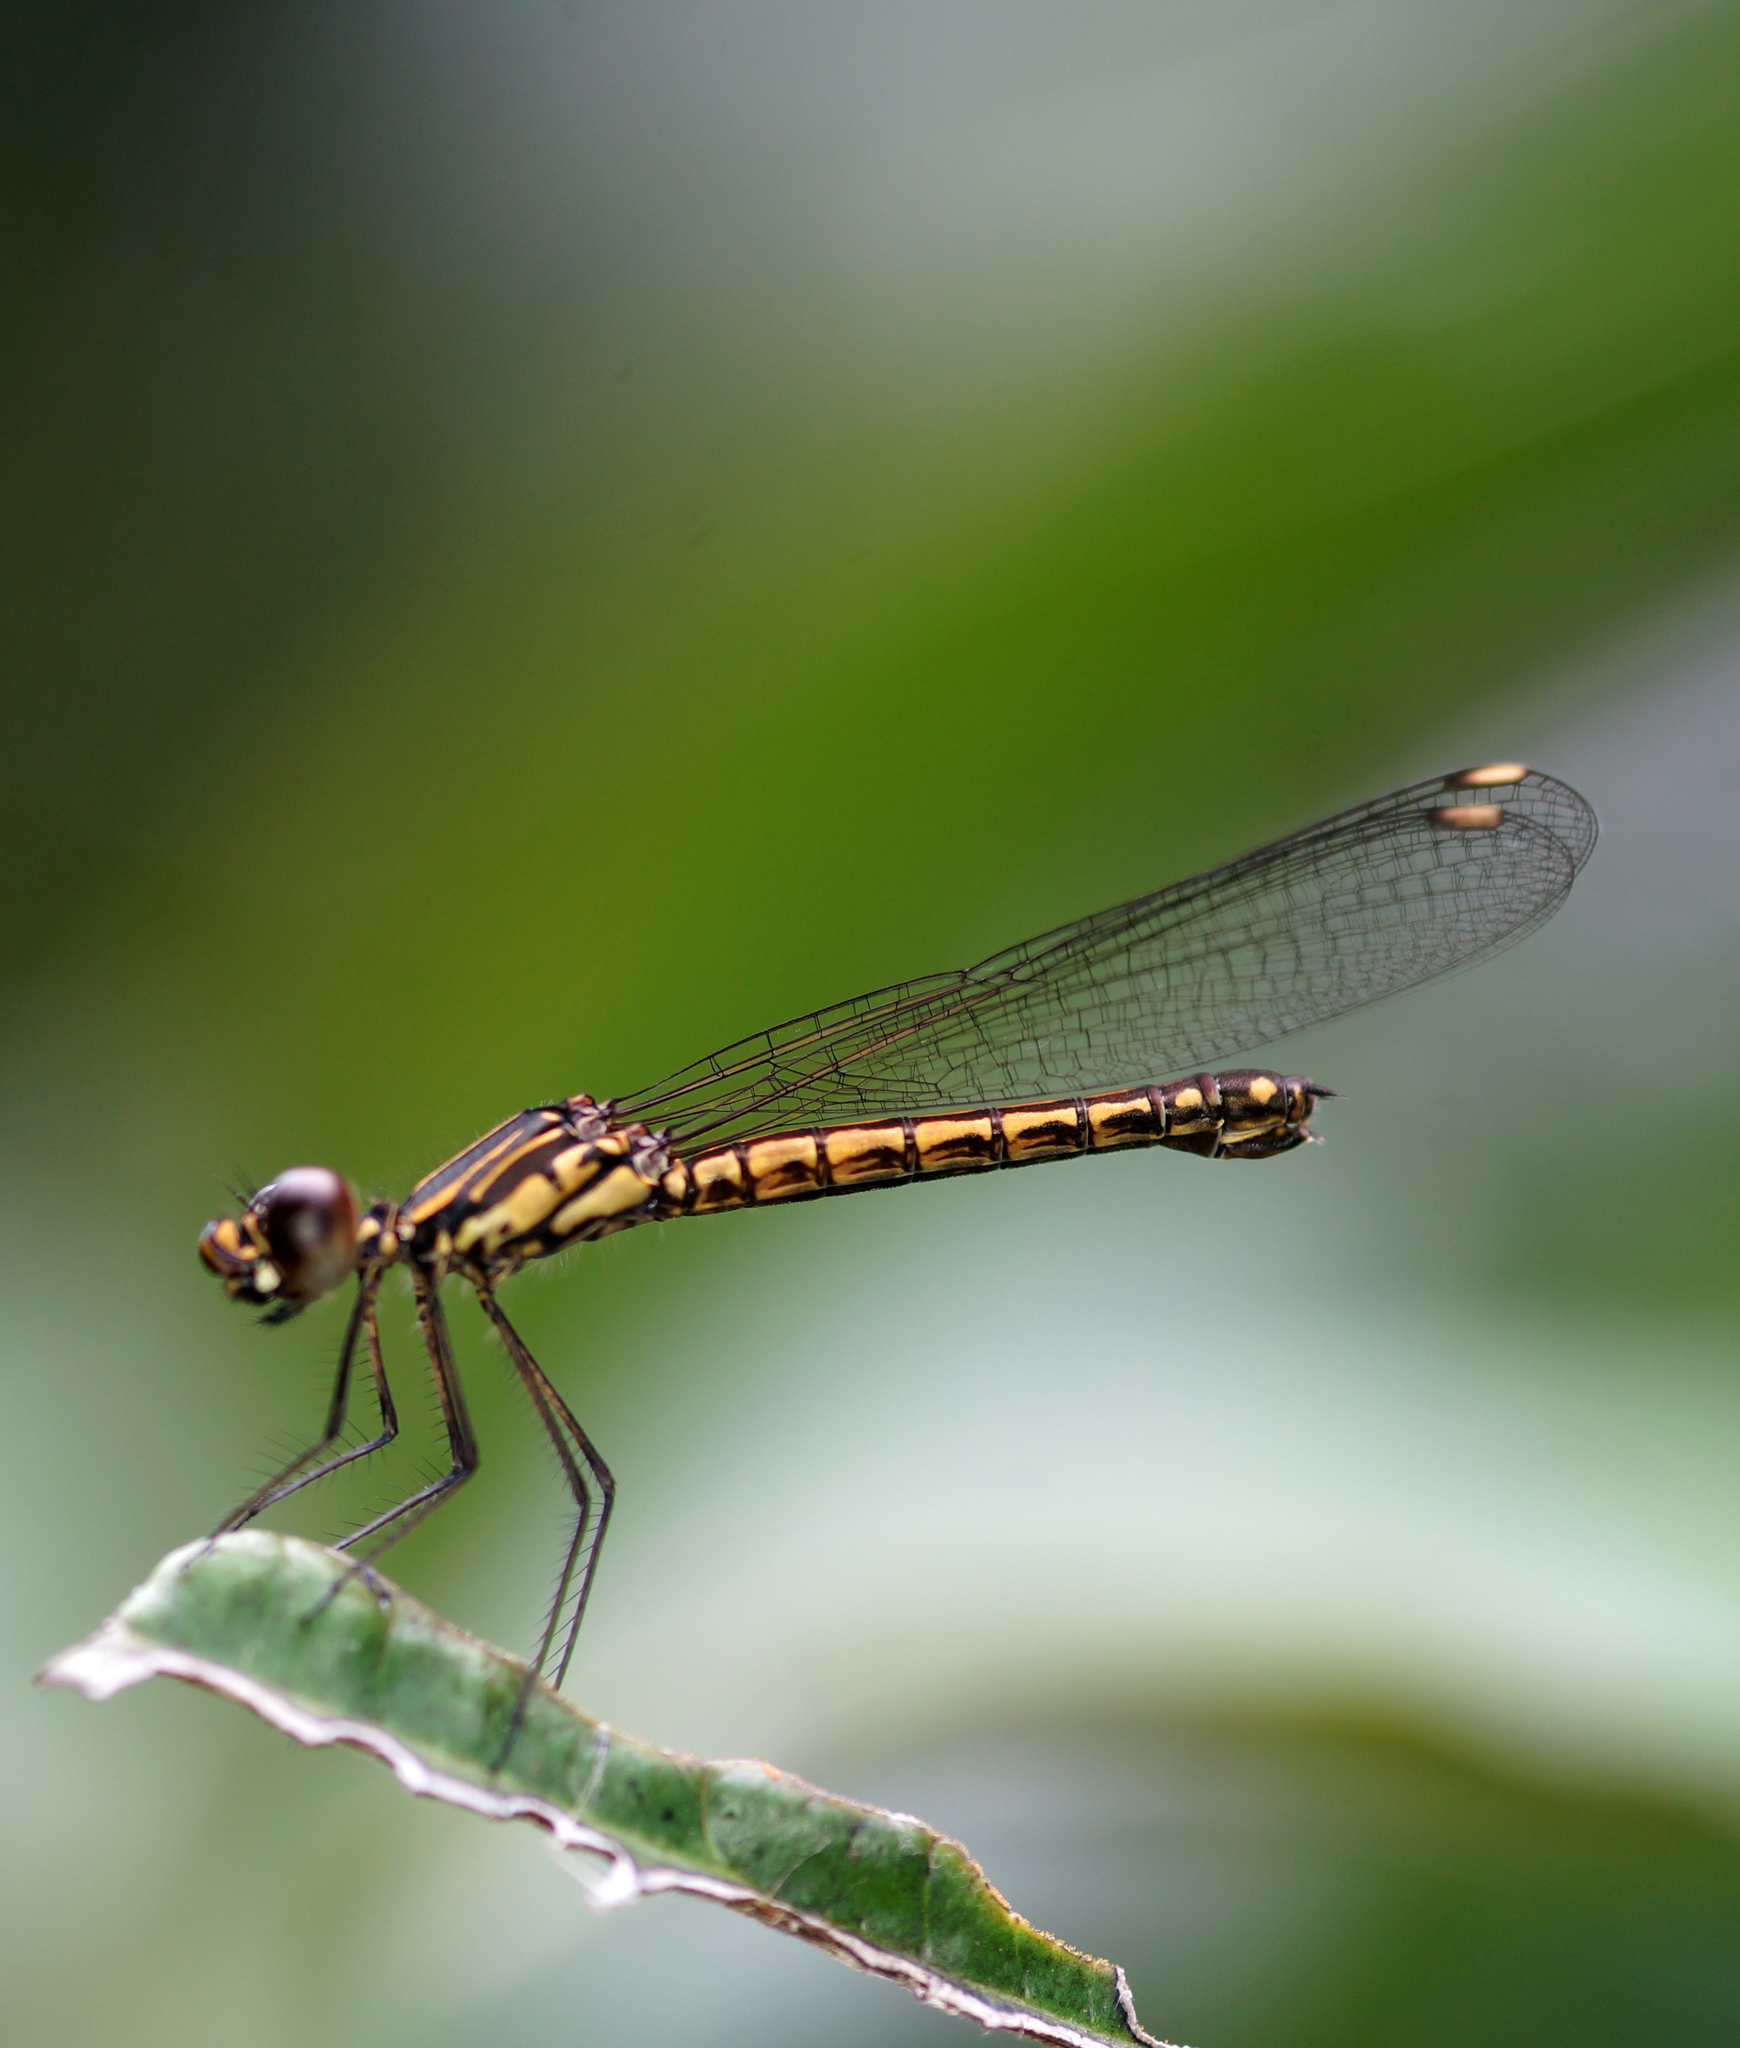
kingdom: Animalia
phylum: Arthropoda
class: Insecta
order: Odonata
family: Chlorocyphidae
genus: Libellago
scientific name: Libellago lineata
